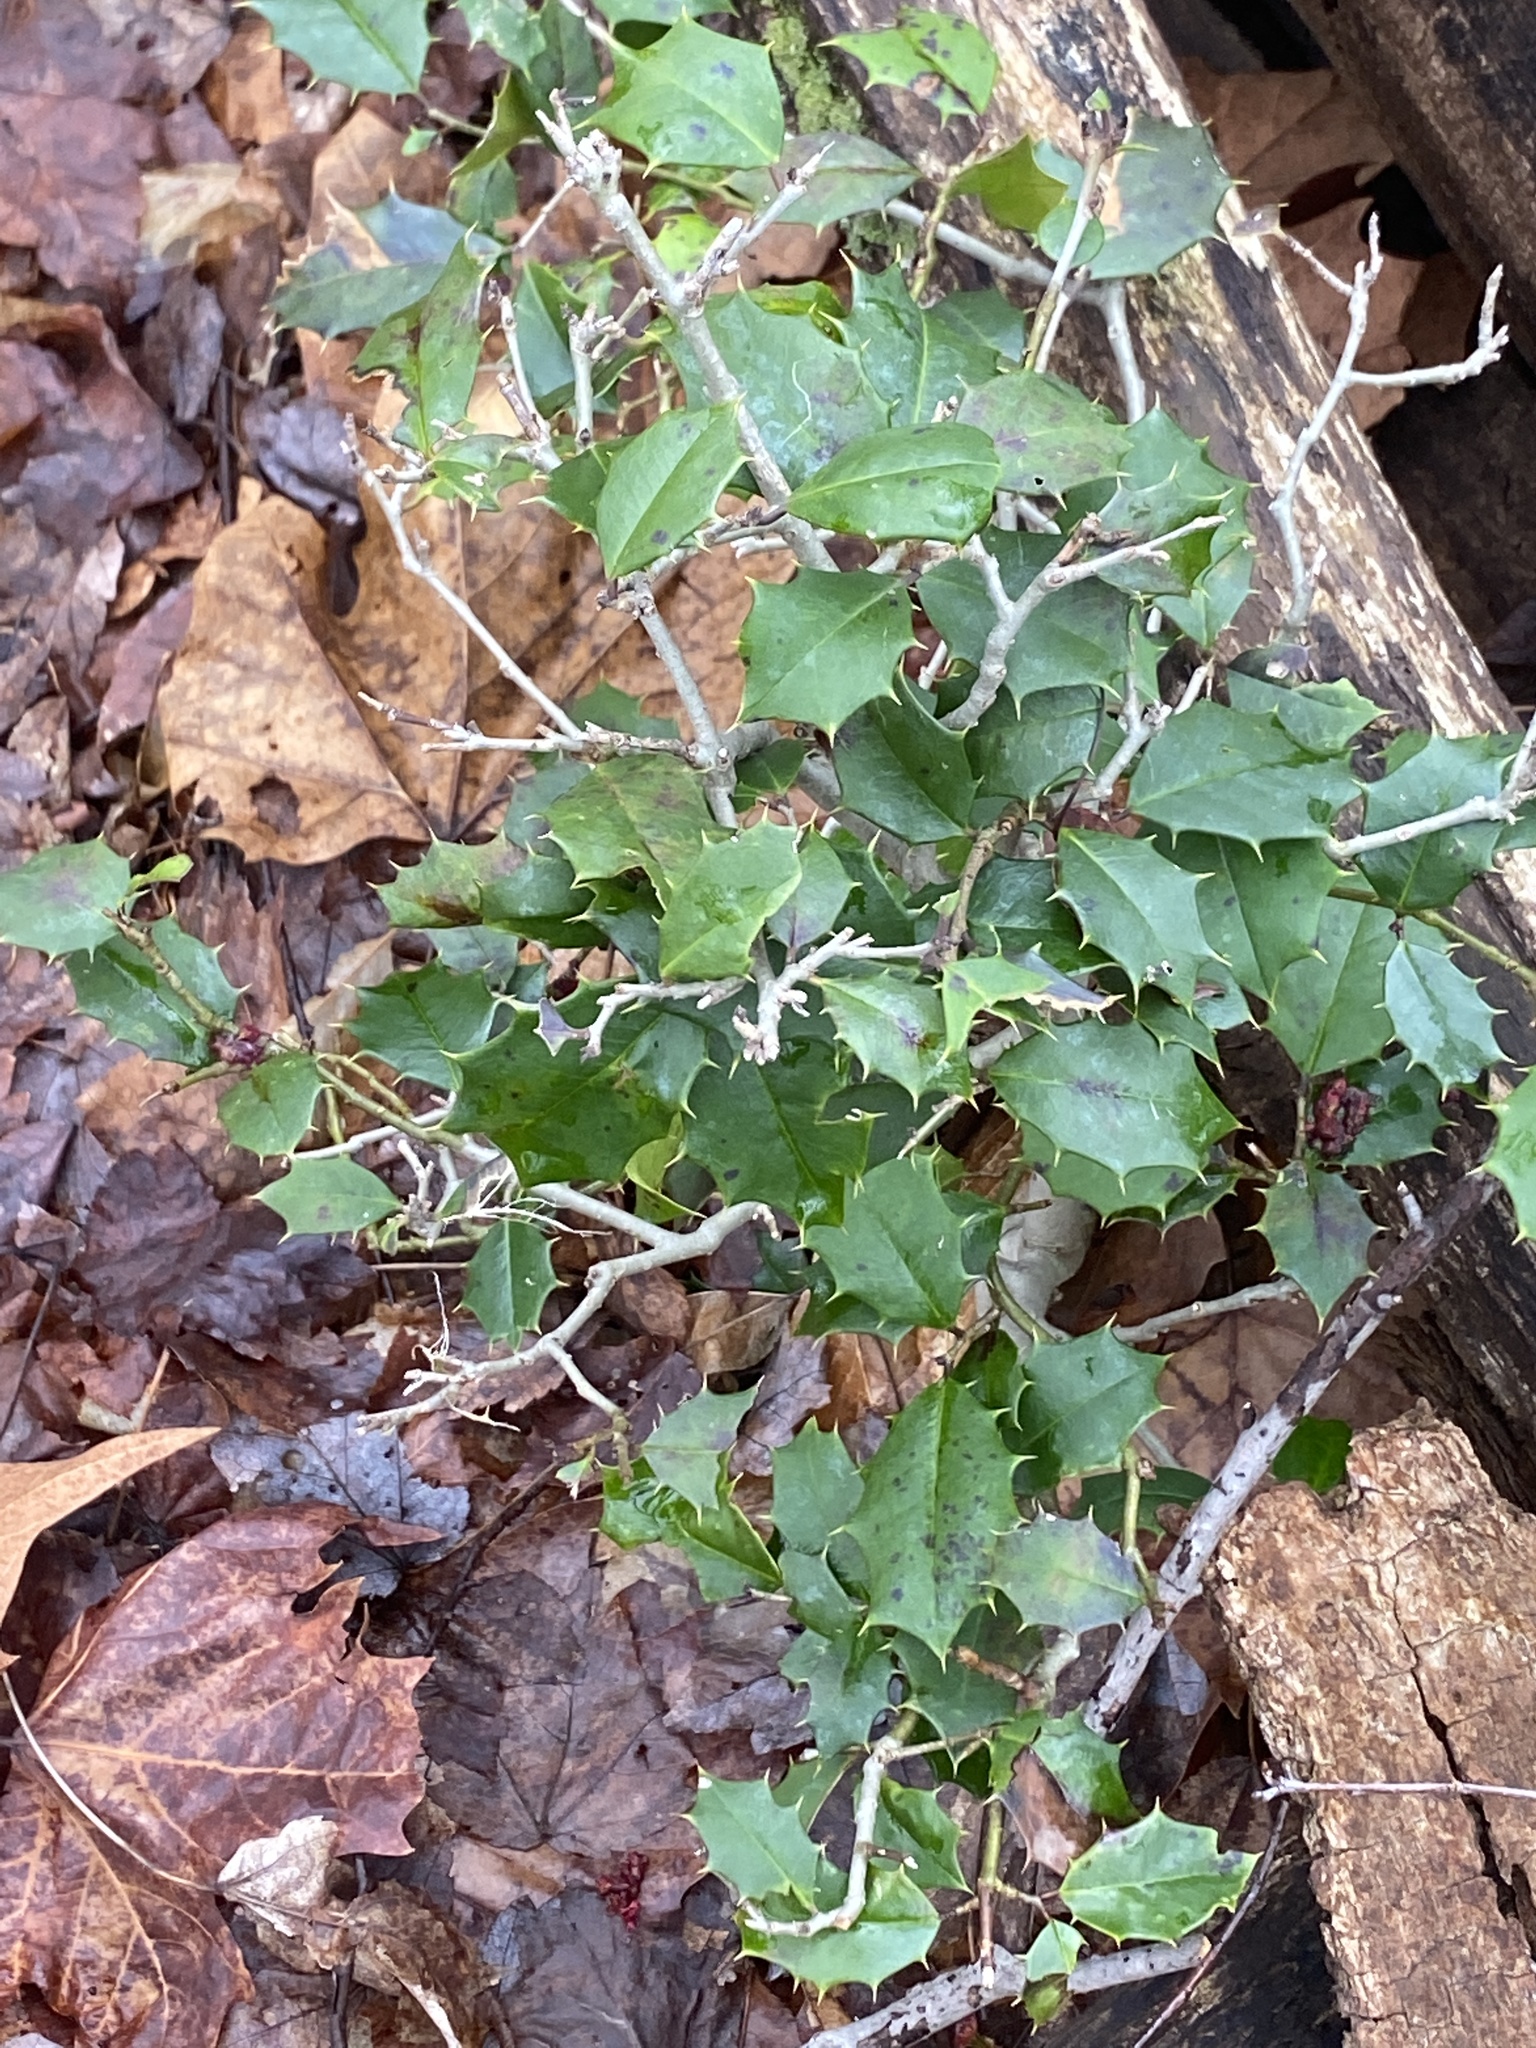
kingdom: Plantae
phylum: Tracheophyta
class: Magnoliopsida
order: Aquifoliales
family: Aquifoliaceae
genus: Ilex
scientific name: Ilex opaca
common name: American holly
